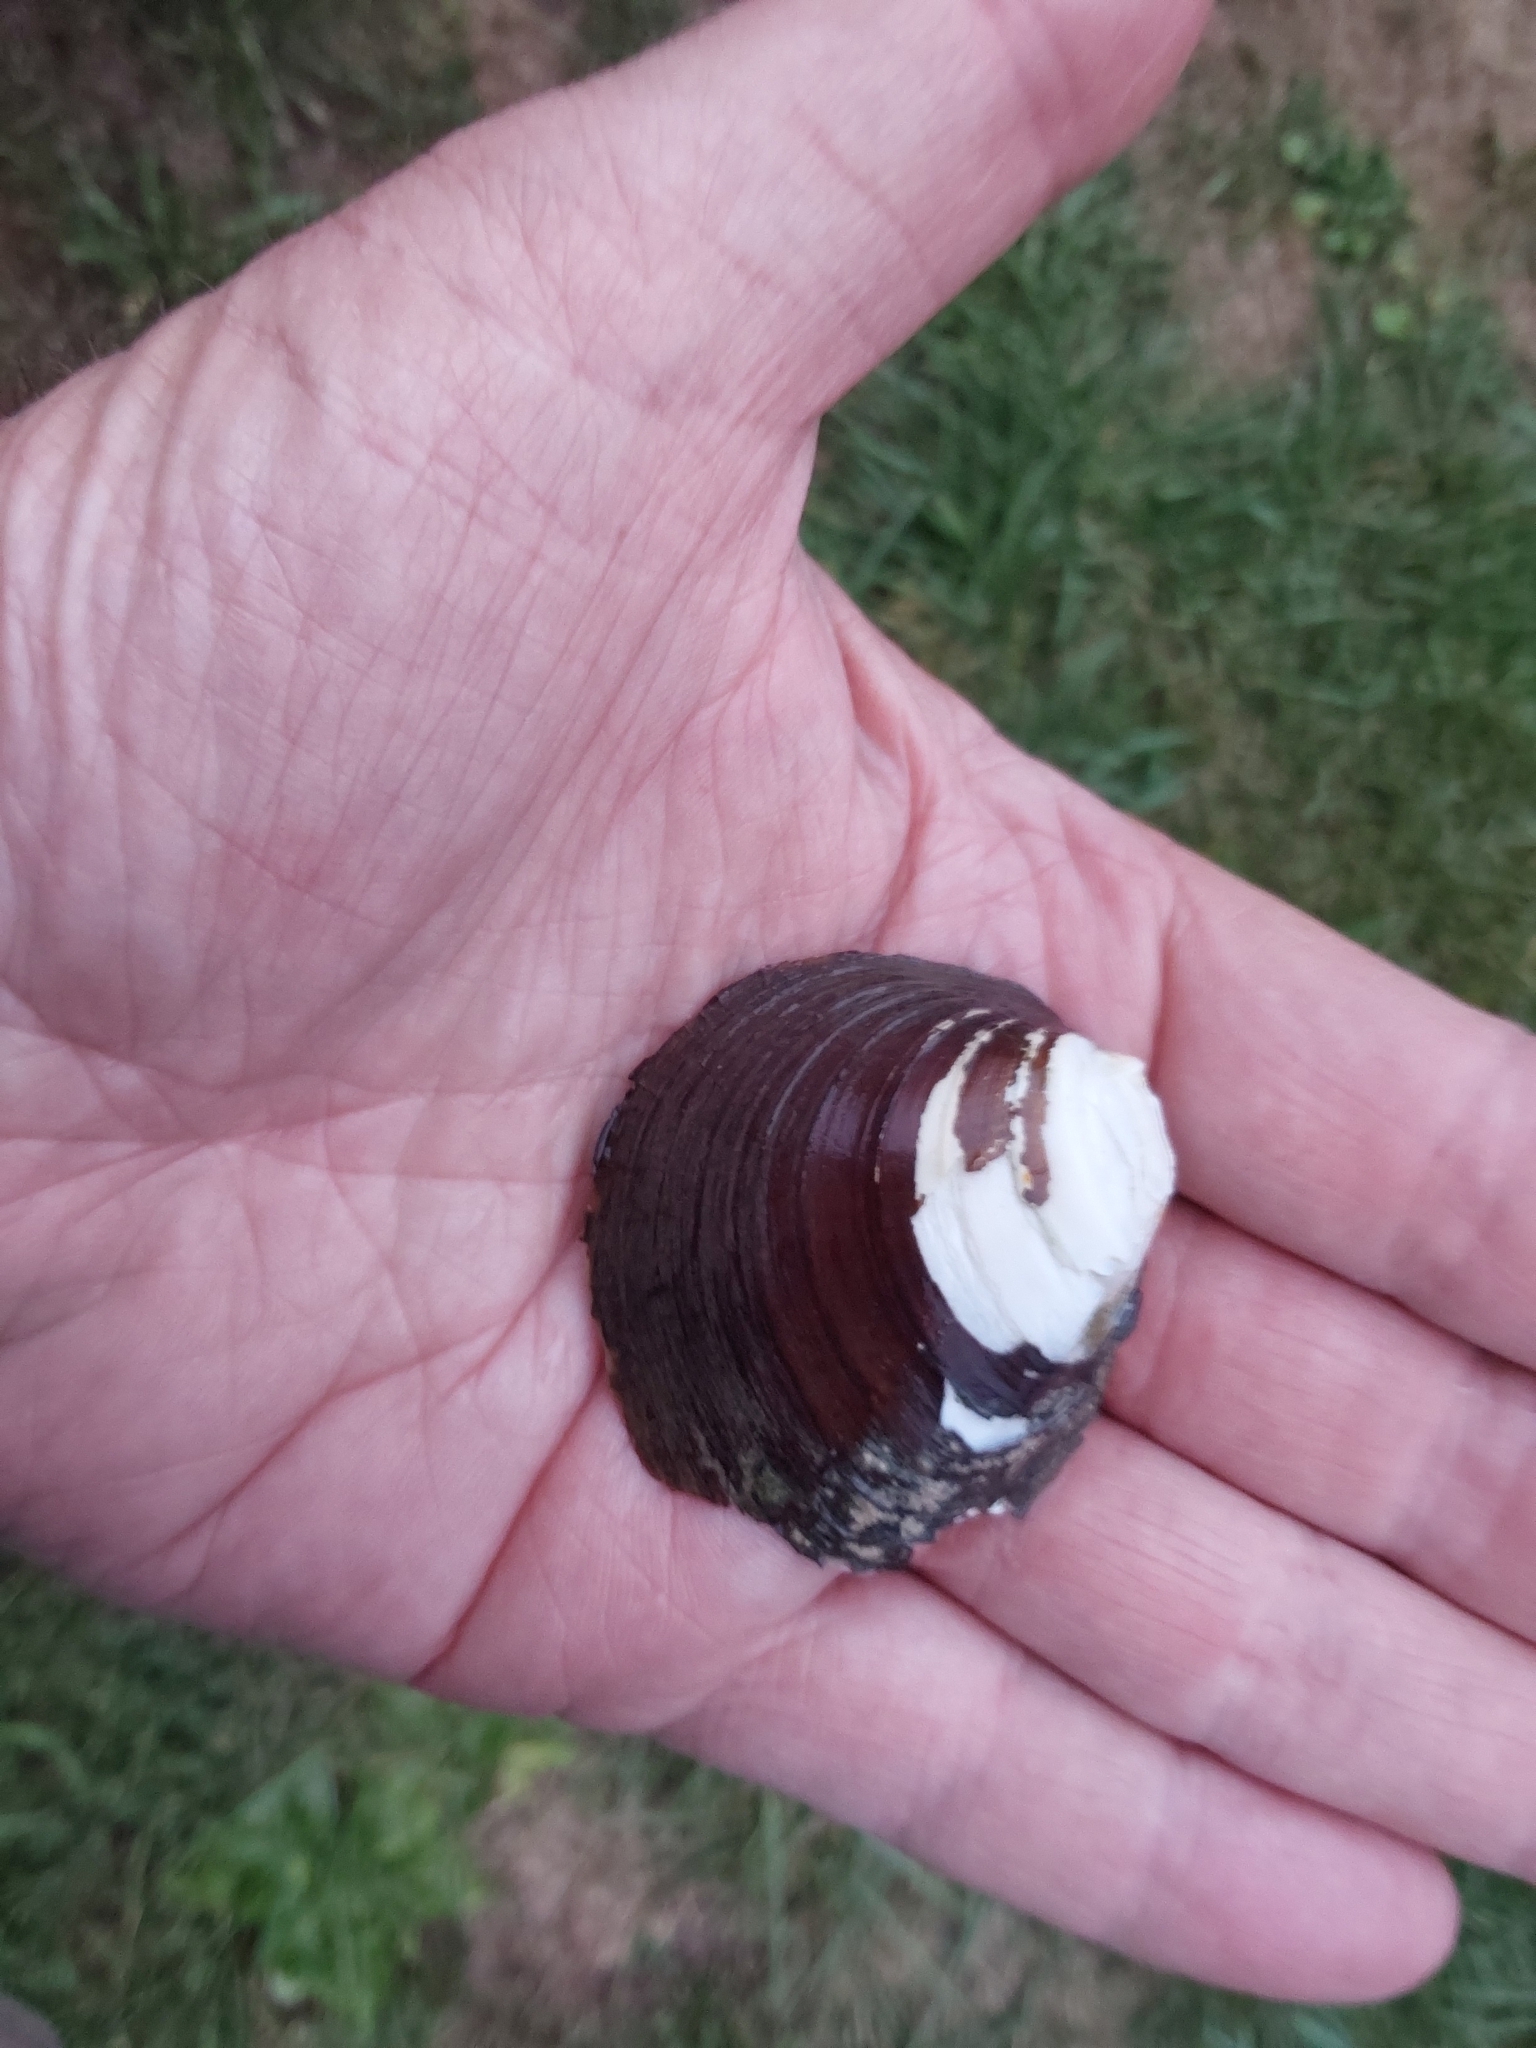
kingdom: Animalia
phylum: Mollusca
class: Bivalvia
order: Unionida
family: Unionidae
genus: Pleurobema
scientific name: Pleurobema sintoxia
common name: Round pigtoe
